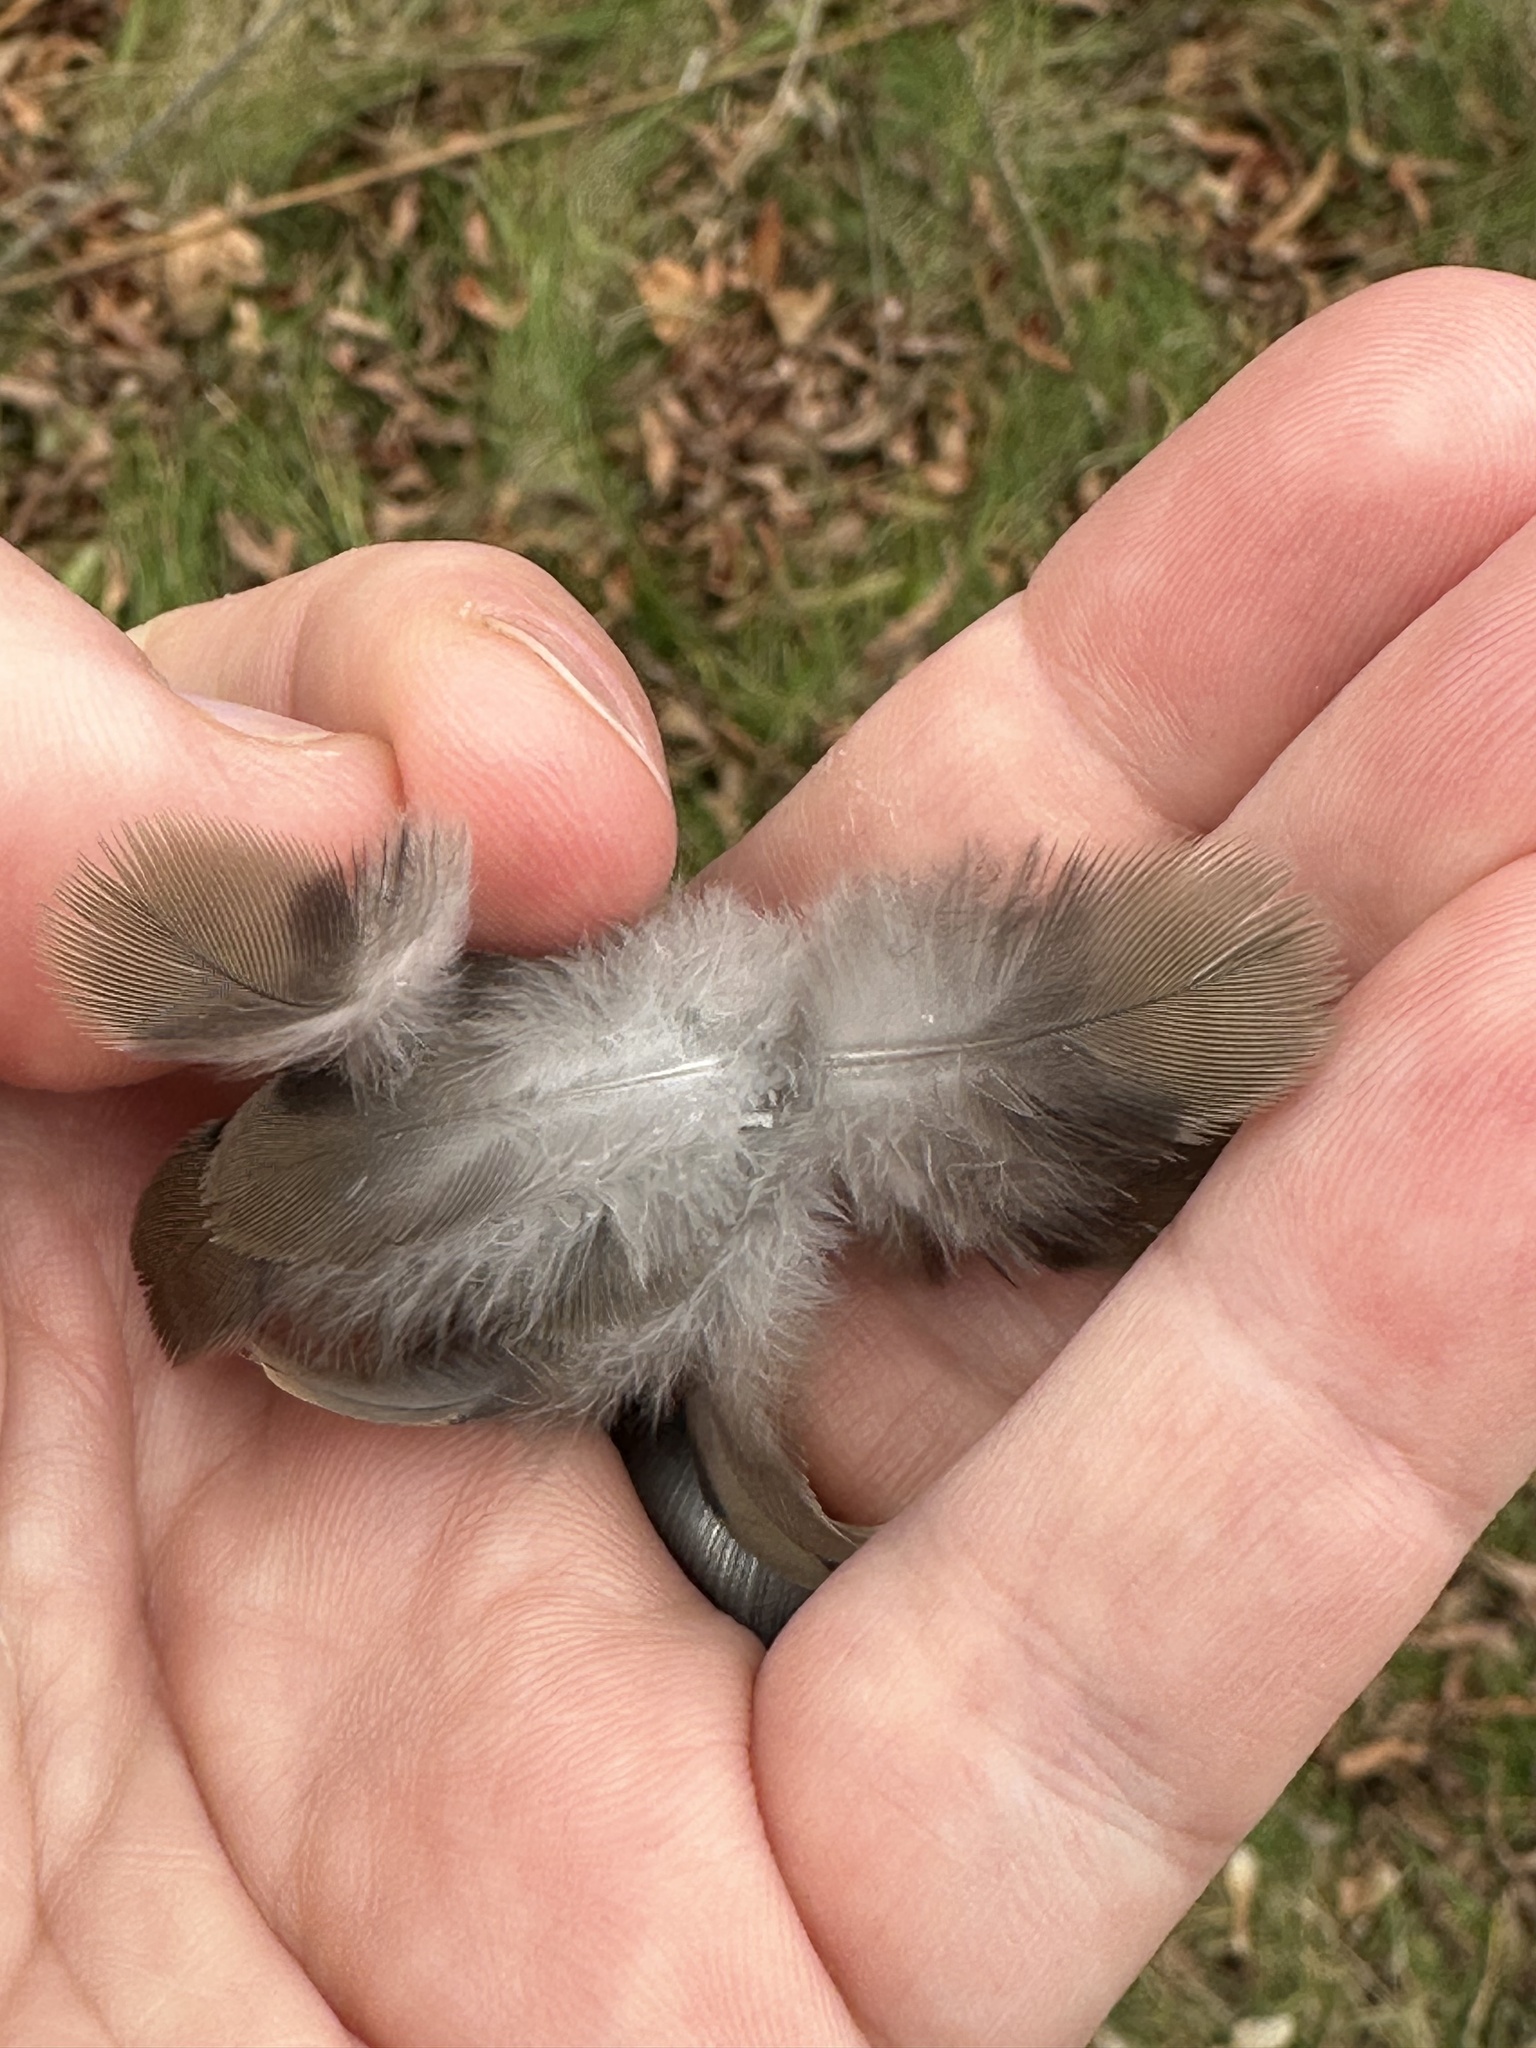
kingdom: Animalia
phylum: Chordata
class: Aves
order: Columbiformes
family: Columbidae
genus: Zenaida
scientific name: Zenaida macroura
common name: Mourning dove
